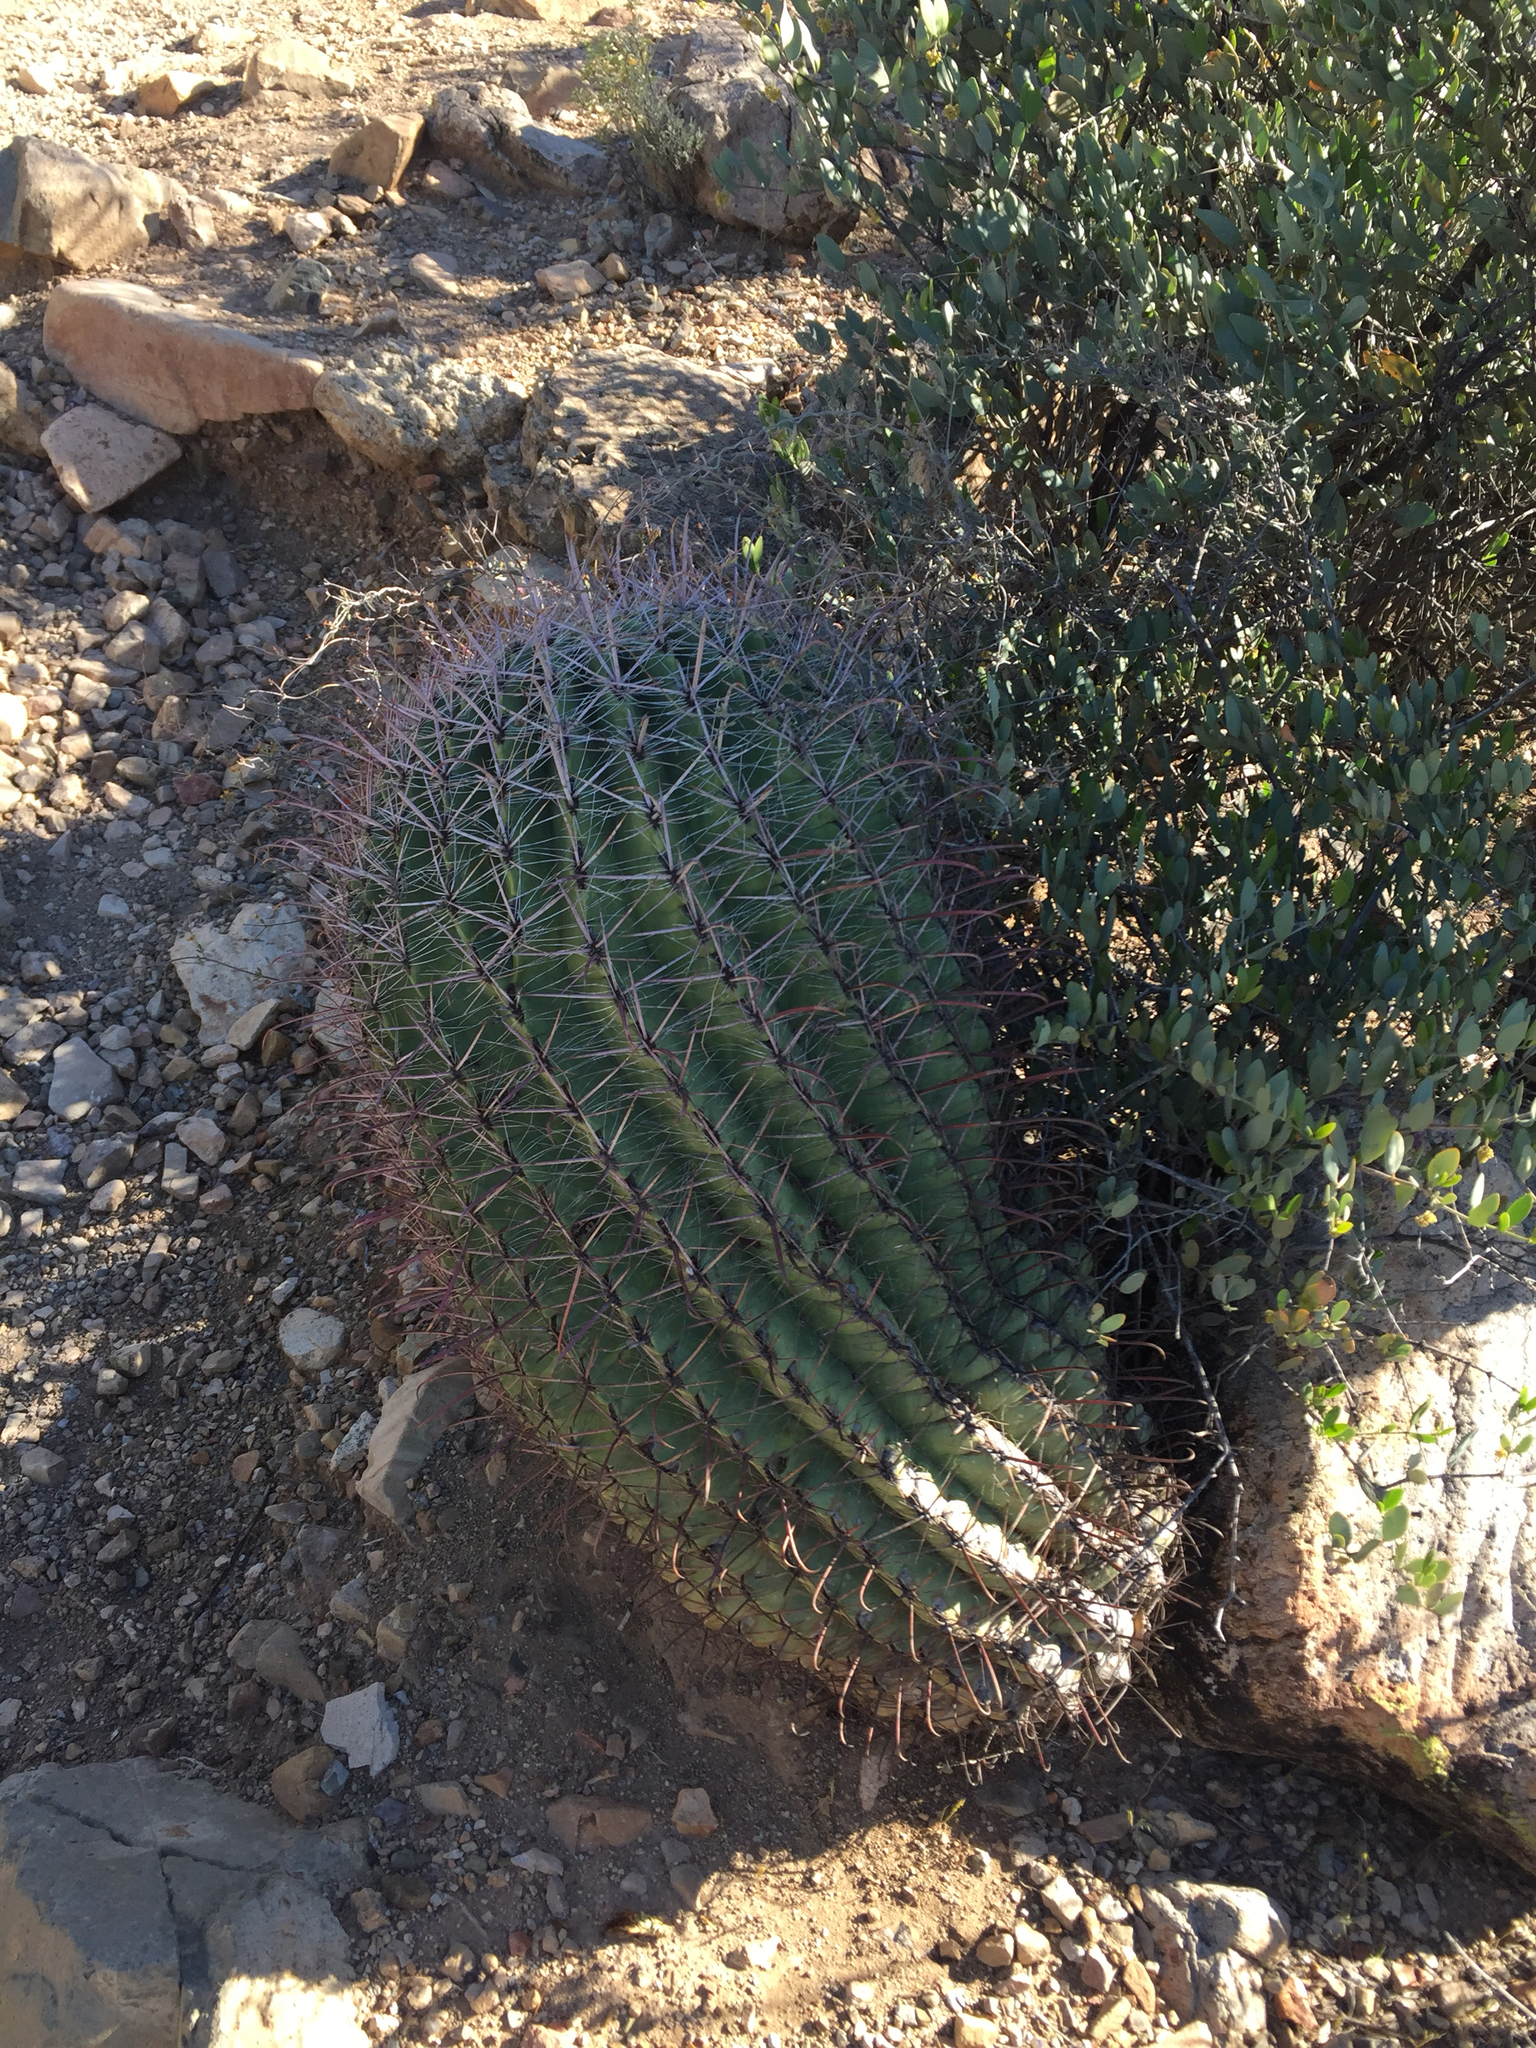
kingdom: Plantae
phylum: Tracheophyta
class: Magnoliopsida
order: Caryophyllales
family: Cactaceae
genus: Ferocactus
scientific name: Ferocactus wislizeni
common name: Candy barrel cactus
